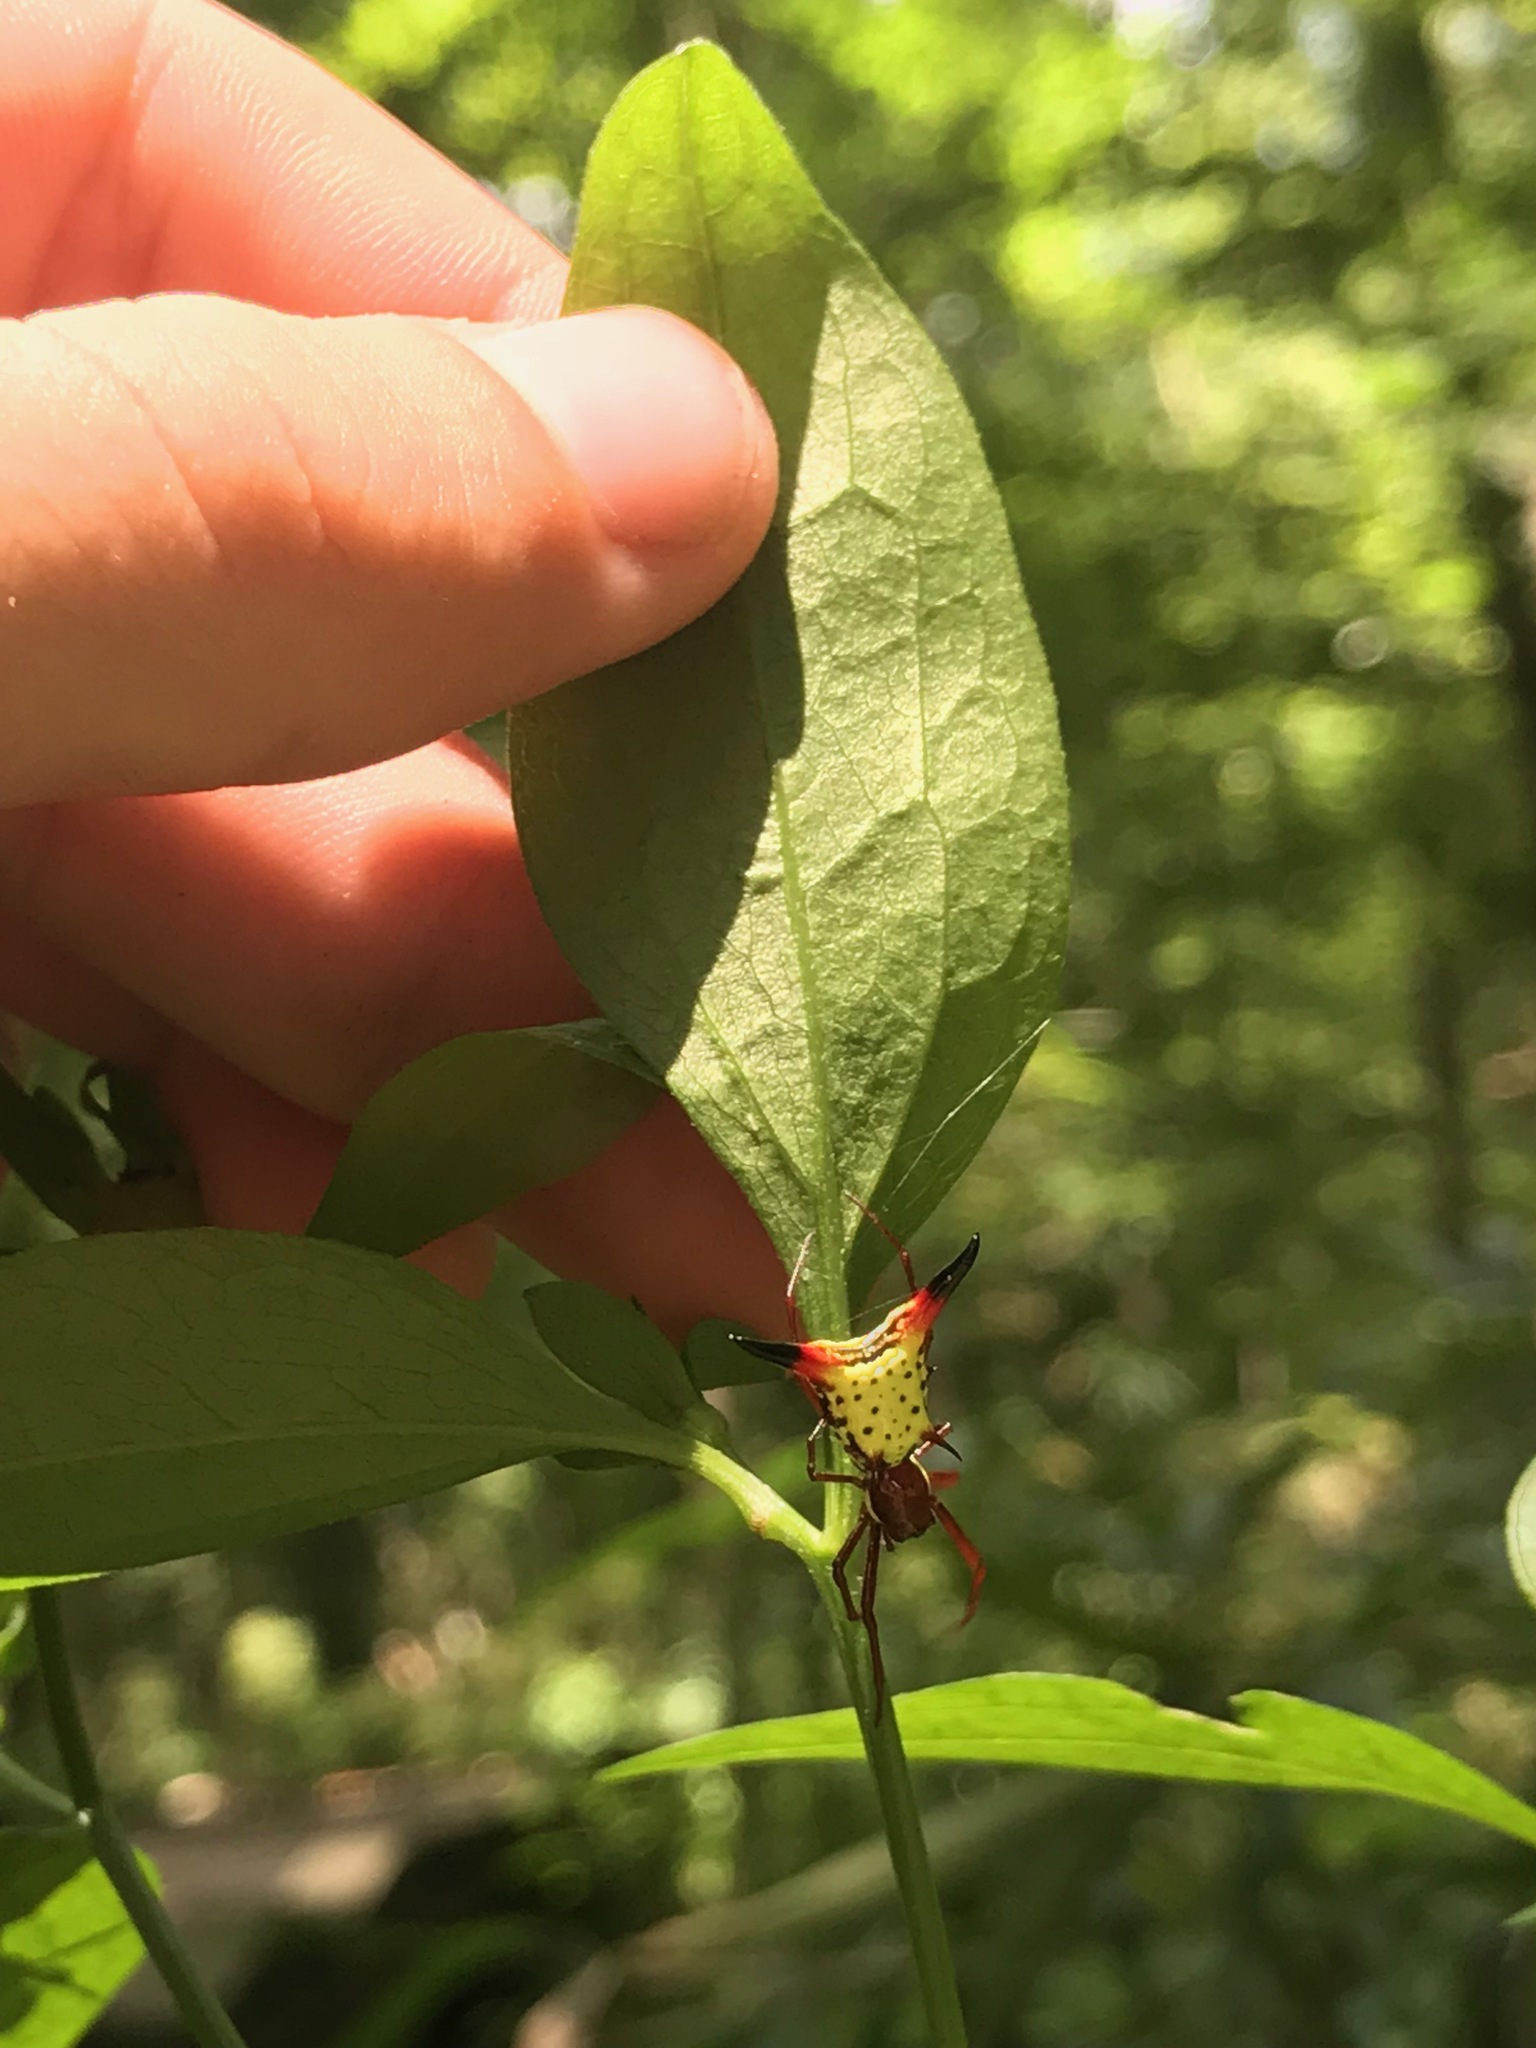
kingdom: Animalia
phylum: Arthropoda
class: Arachnida
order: Araneae
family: Araneidae
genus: Micrathena
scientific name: Micrathena sagittata
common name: Orb weavers
